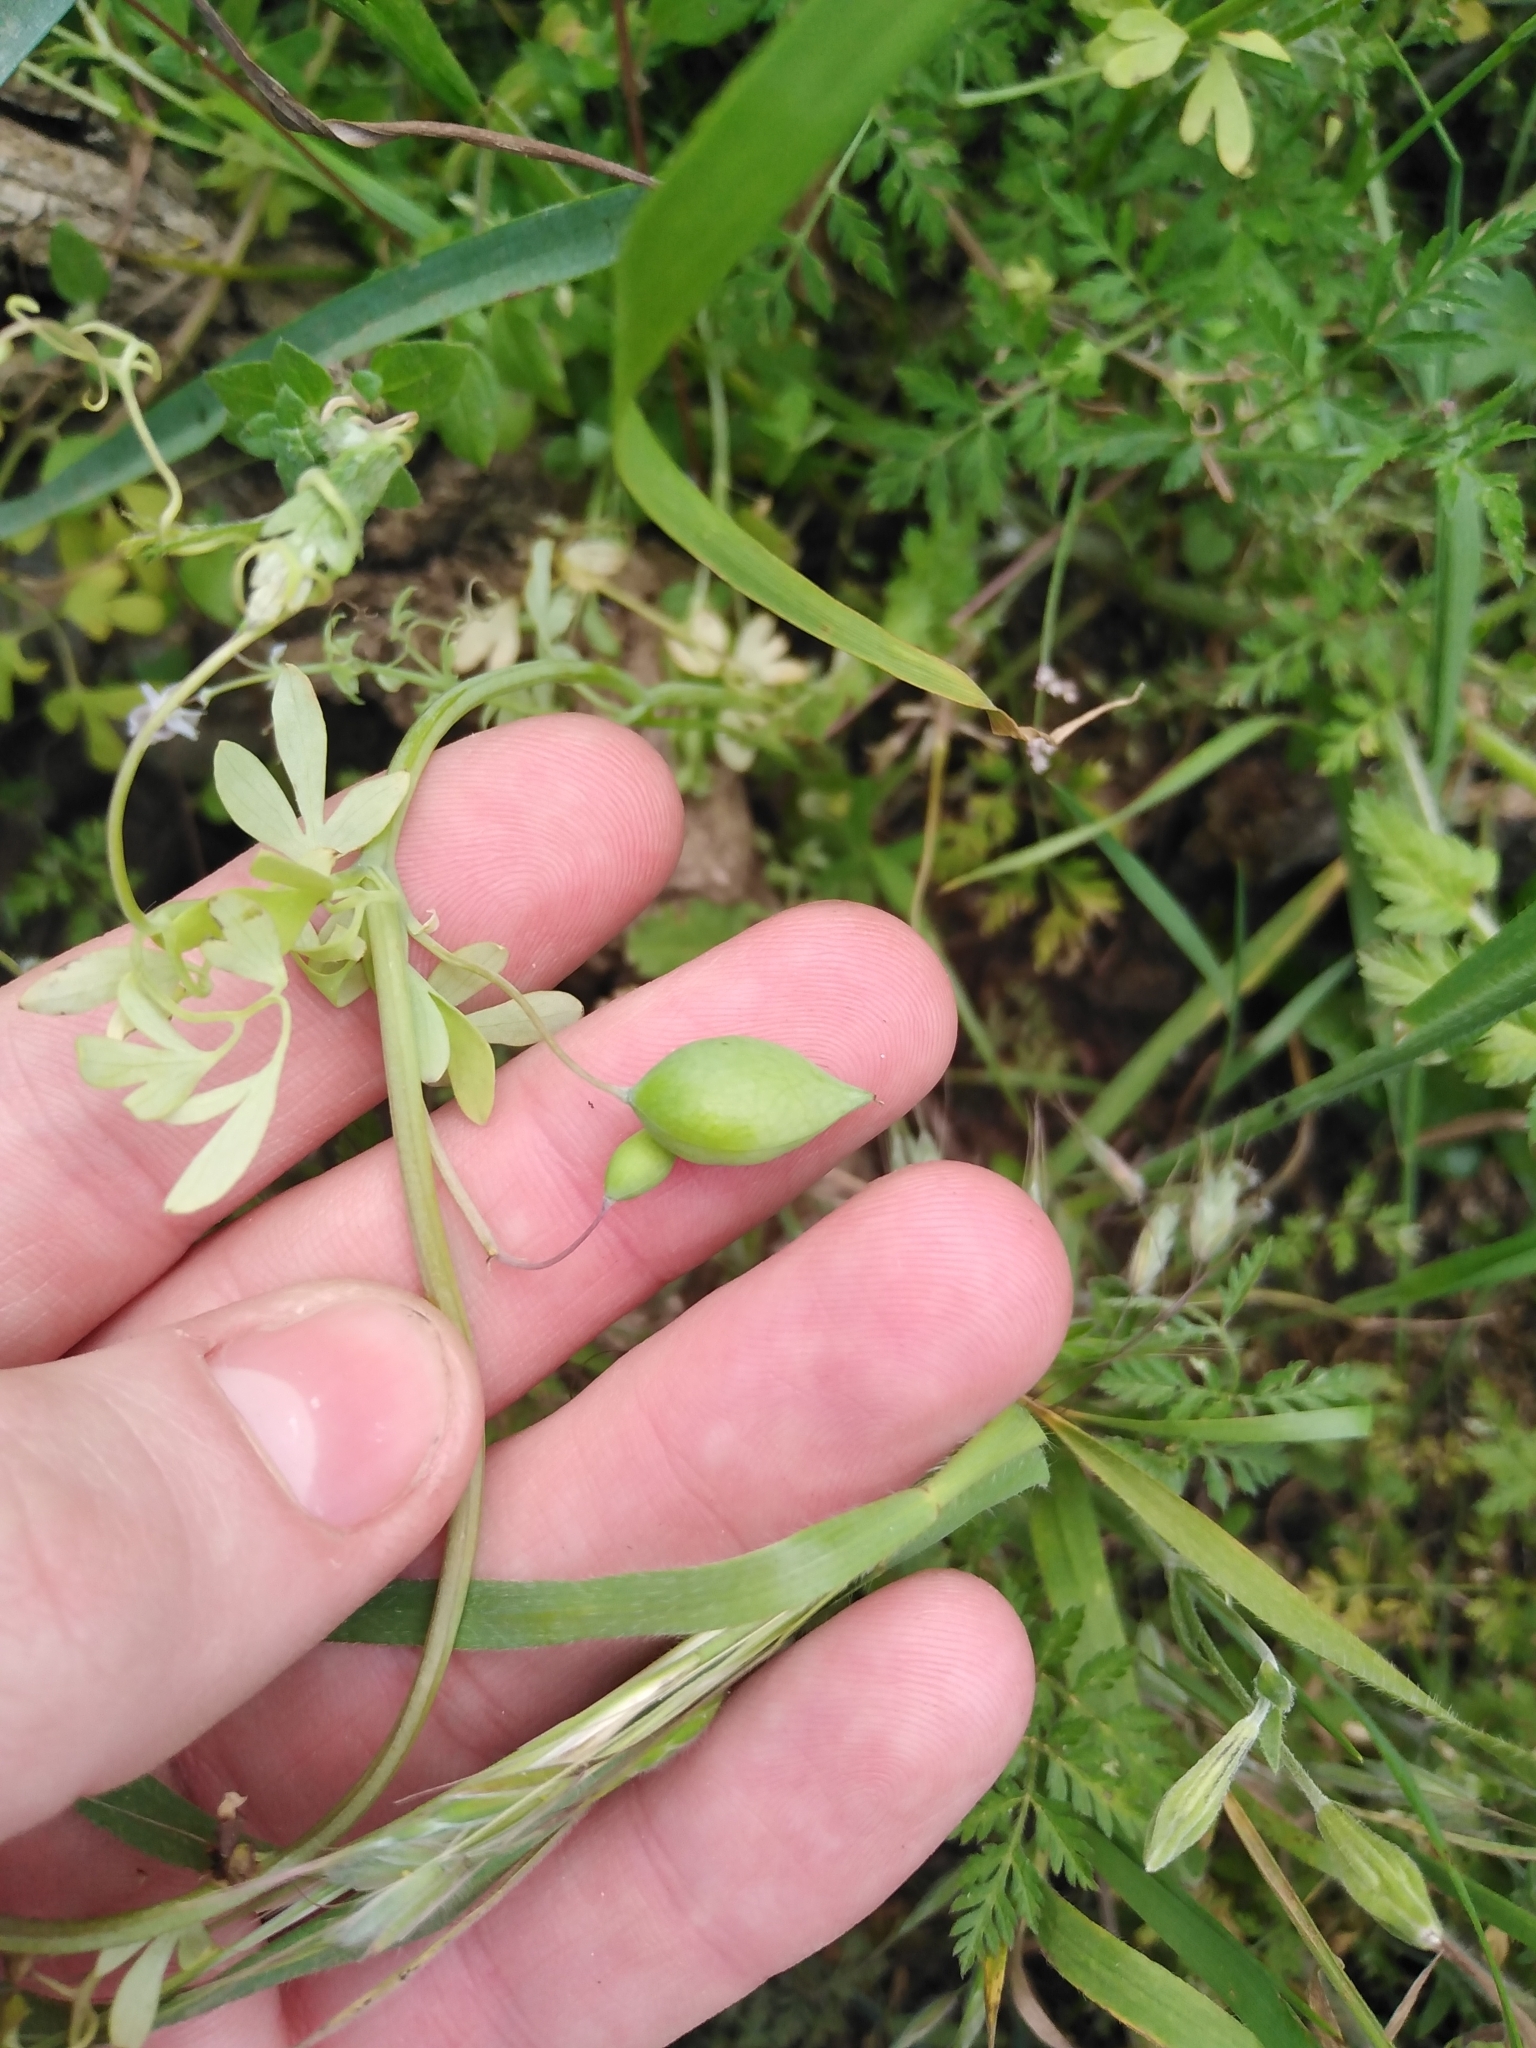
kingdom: Plantae
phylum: Tracheophyta
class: Magnoliopsida
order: Ranunculales
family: Papaveraceae
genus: Cysticapnos
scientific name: Cysticapnos vesicaria
